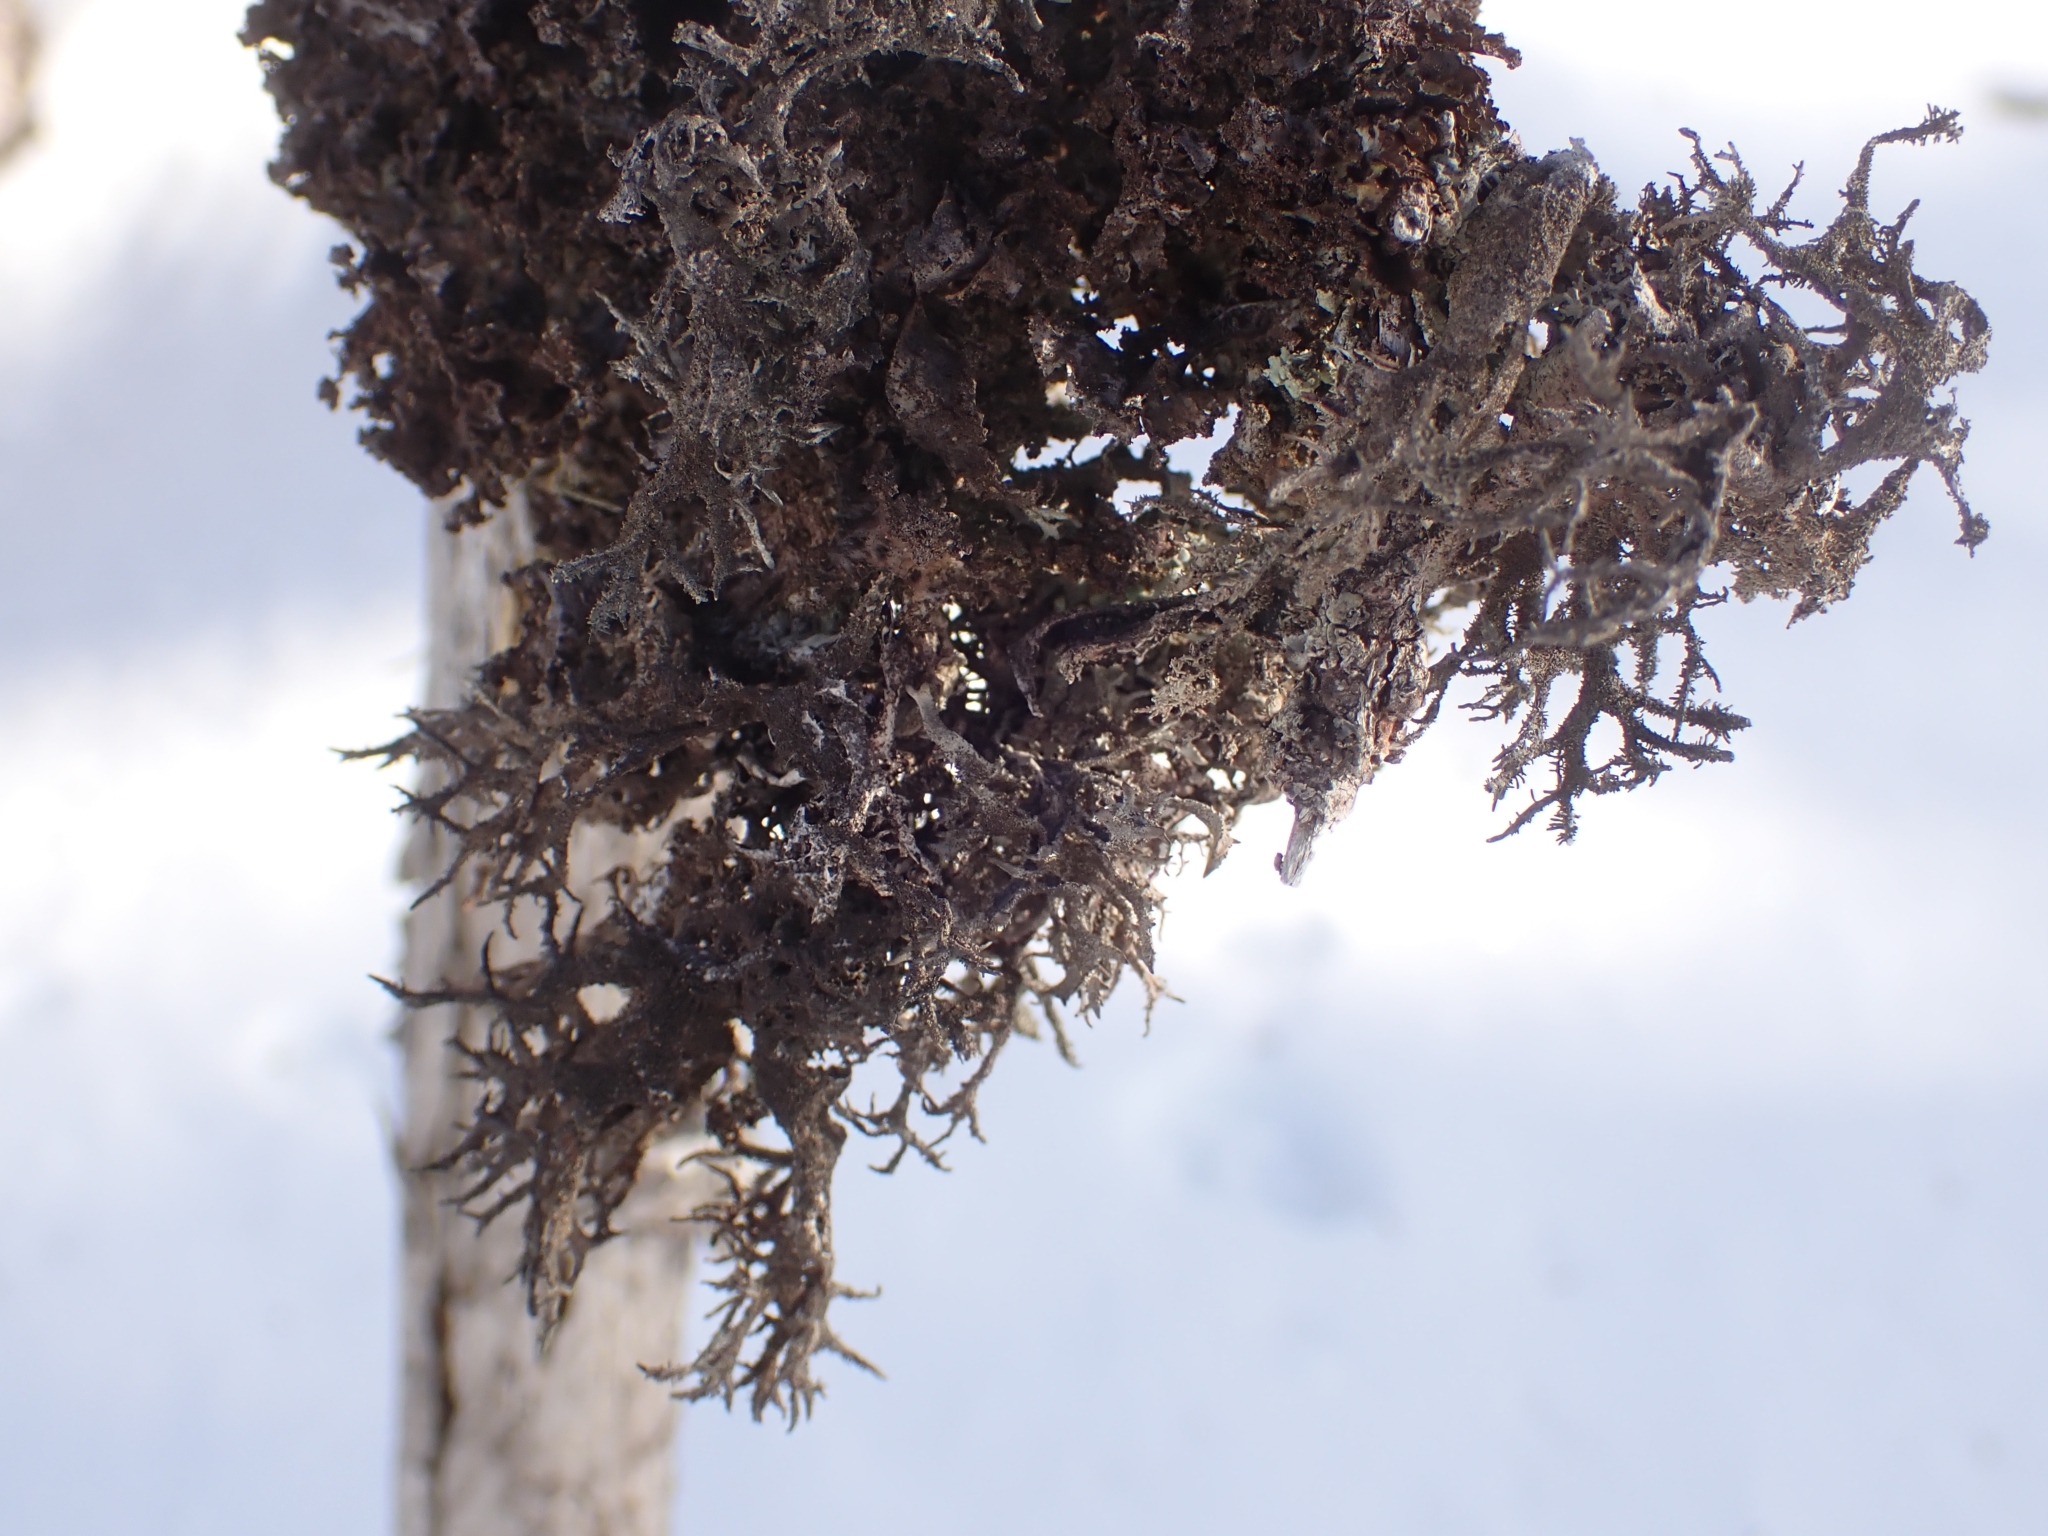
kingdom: Fungi
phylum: Ascomycota
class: Lecanoromycetes
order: Lecanorales
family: Parmeliaceae
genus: Pseudevernia
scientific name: Pseudevernia furfuracea
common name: Tree moss
